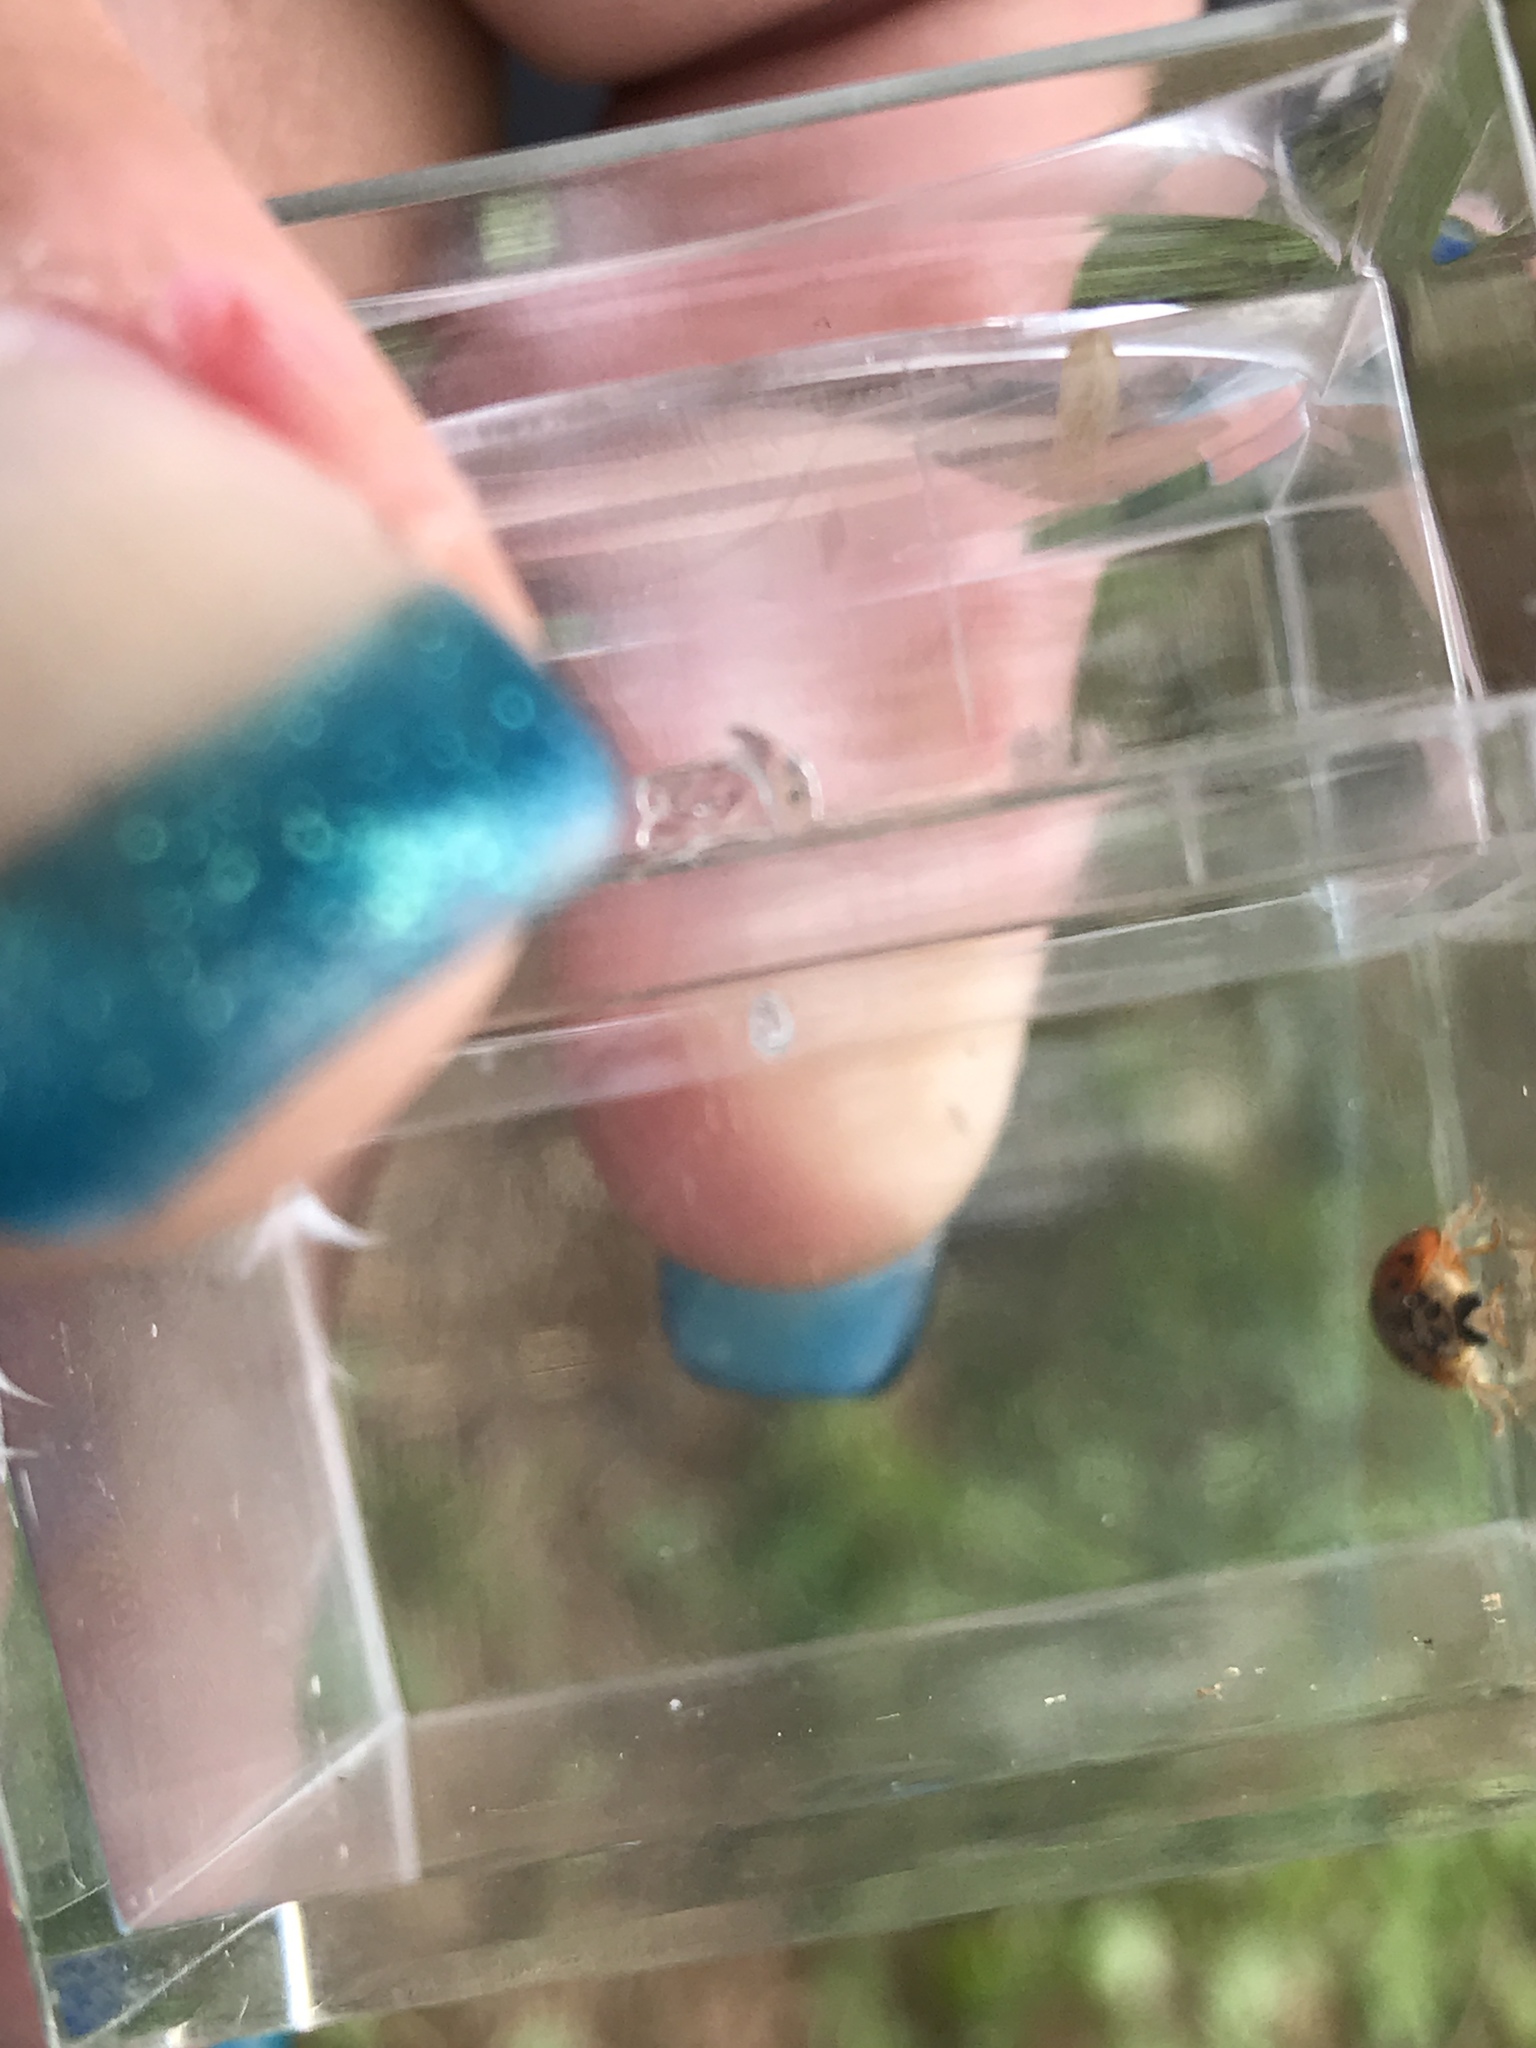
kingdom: Animalia
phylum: Arthropoda
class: Insecta
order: Coleoptera
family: Coccinellidae
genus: Harmonia
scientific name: Harmonia axyridis
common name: Harlequin ladybird
